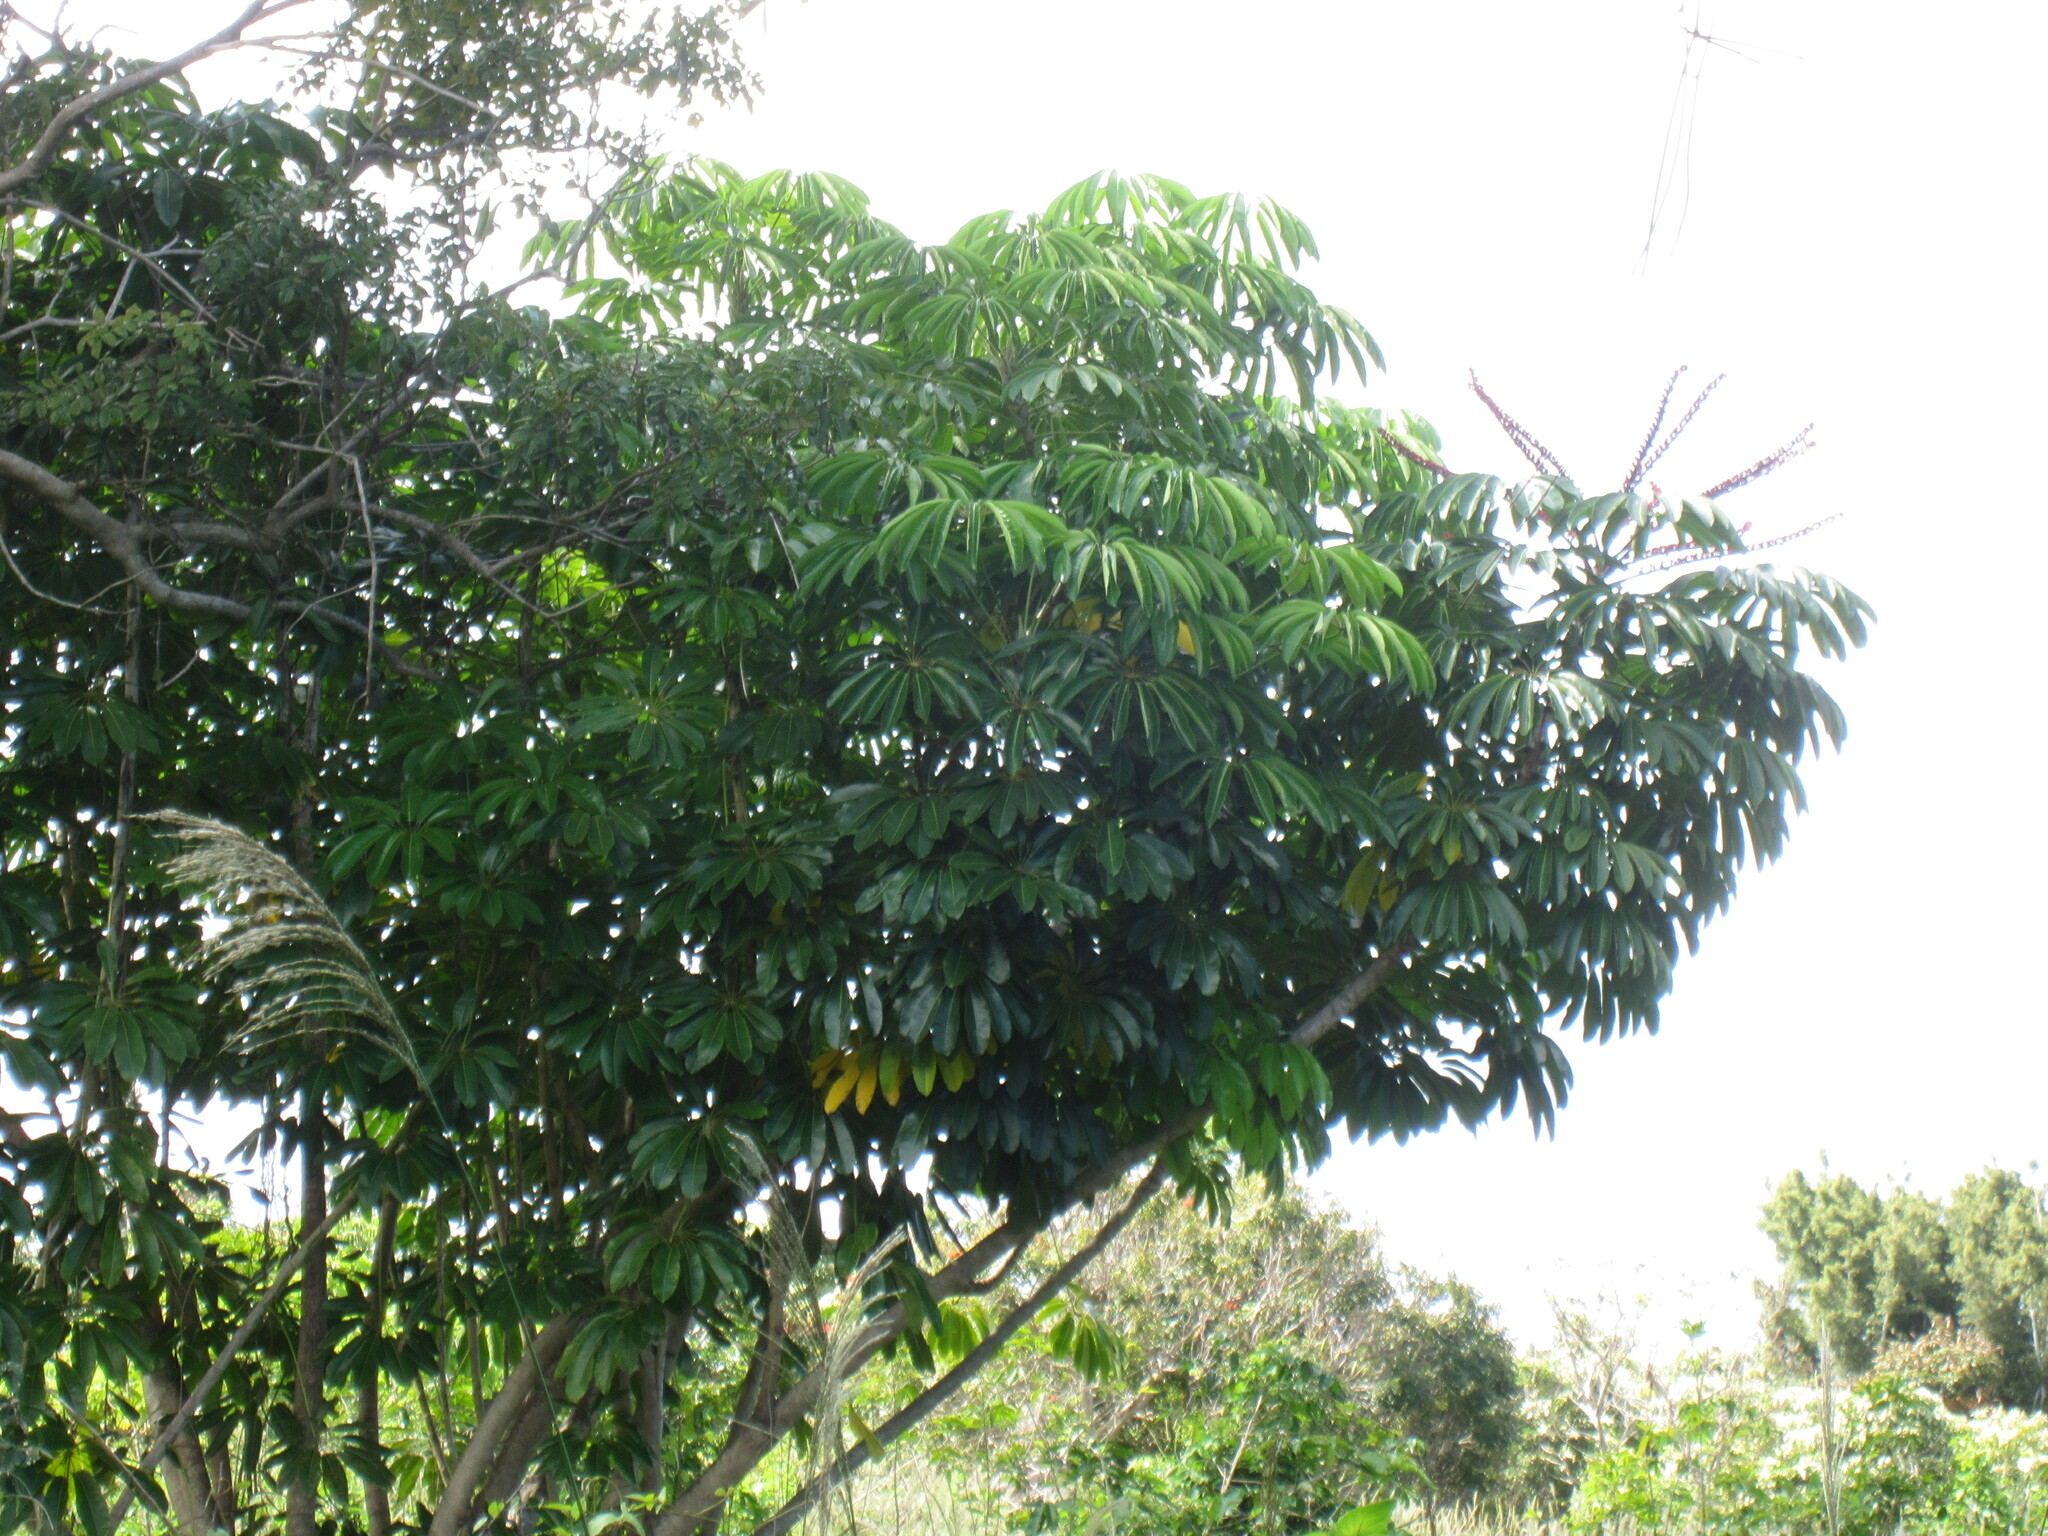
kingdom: Plantae
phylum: Tracheophyta
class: Magnoliopsida
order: Apiales
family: Araliaceae
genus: Heptapleurum
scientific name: Heptapleurum actinophyllum
